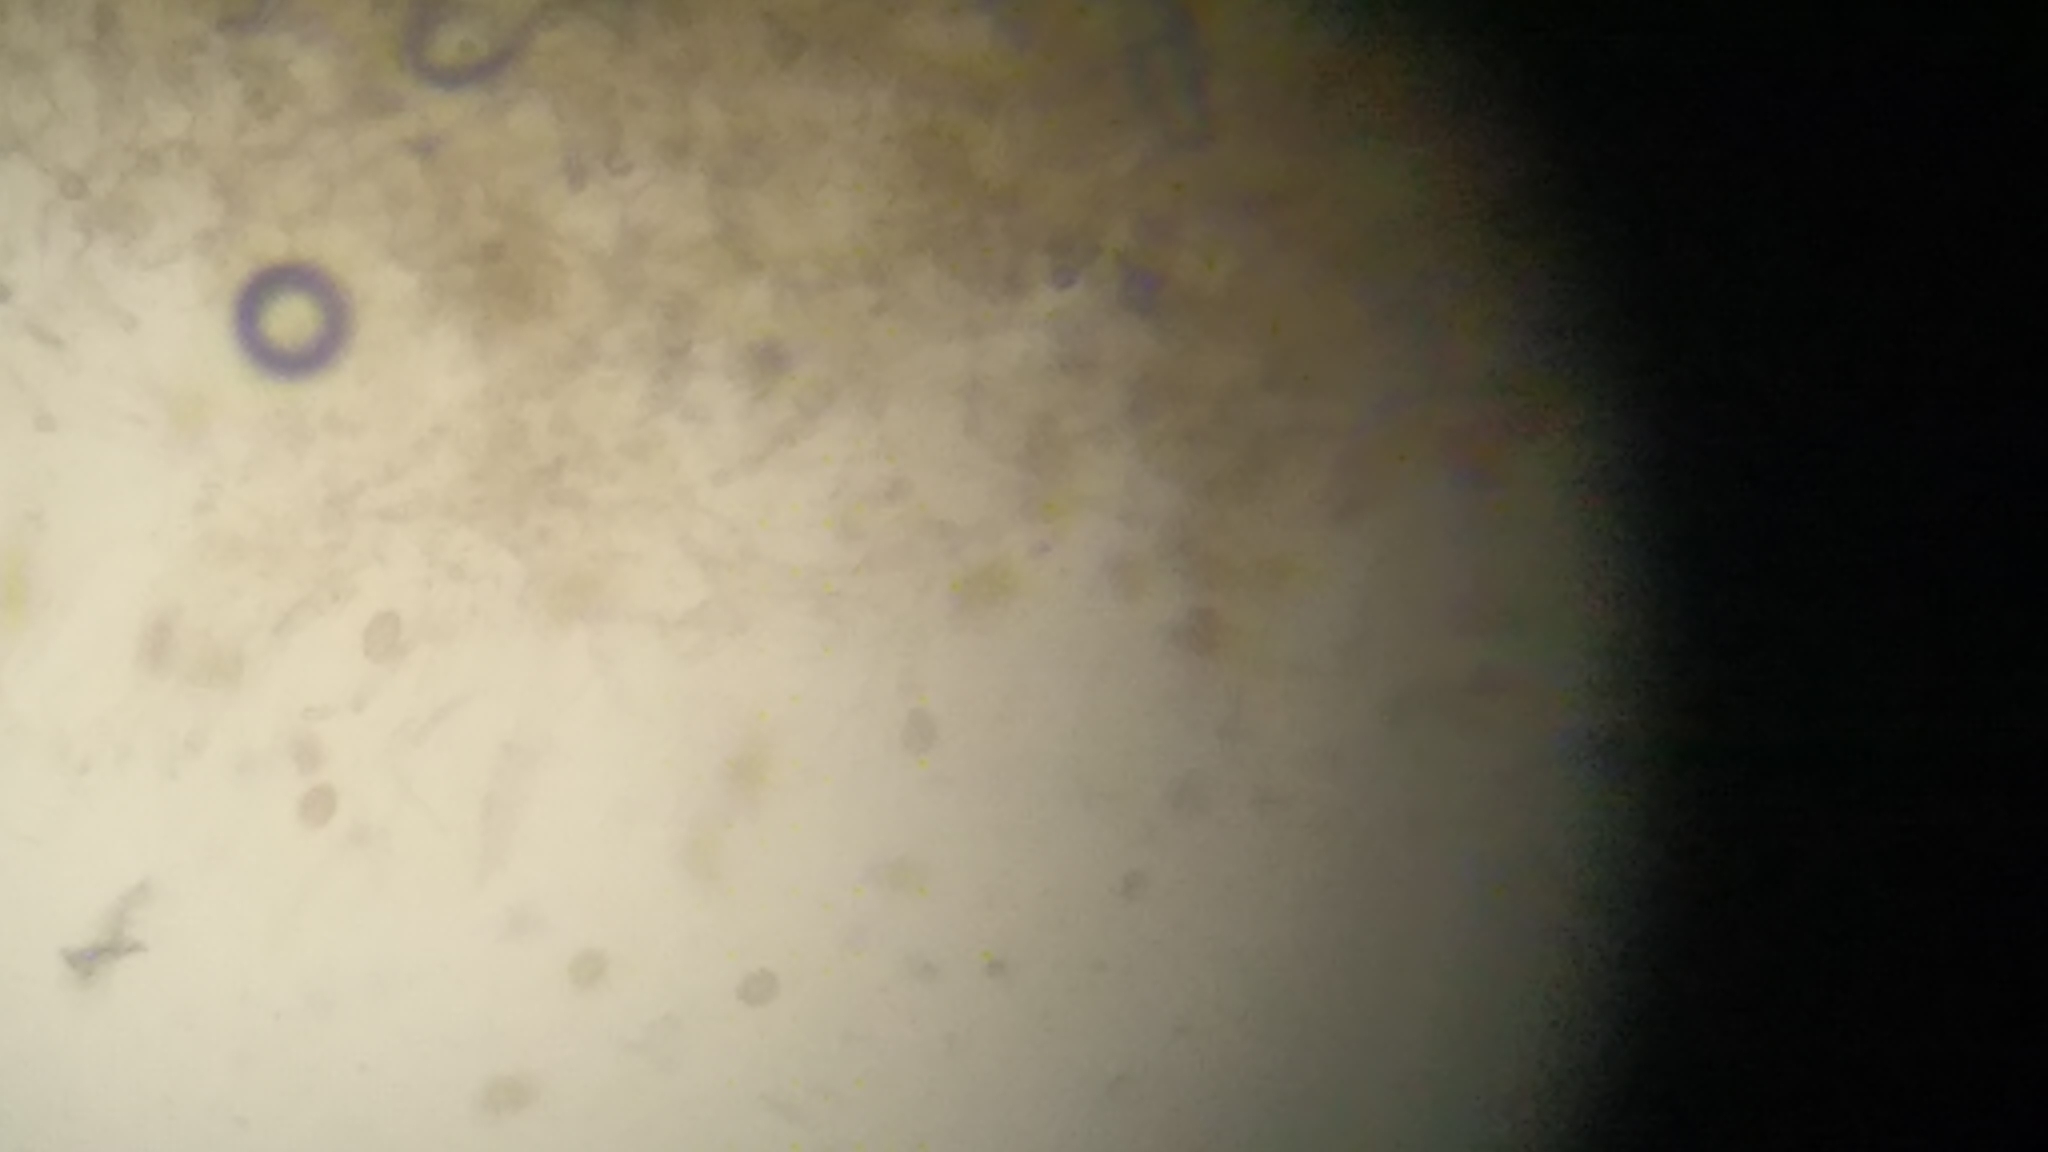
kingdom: Fungi
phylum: Basidiomycota
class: Agaricomycetes
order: Agaricales
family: Hymenogastraceae
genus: Hebeloma
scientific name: Hebeloma albidulum
